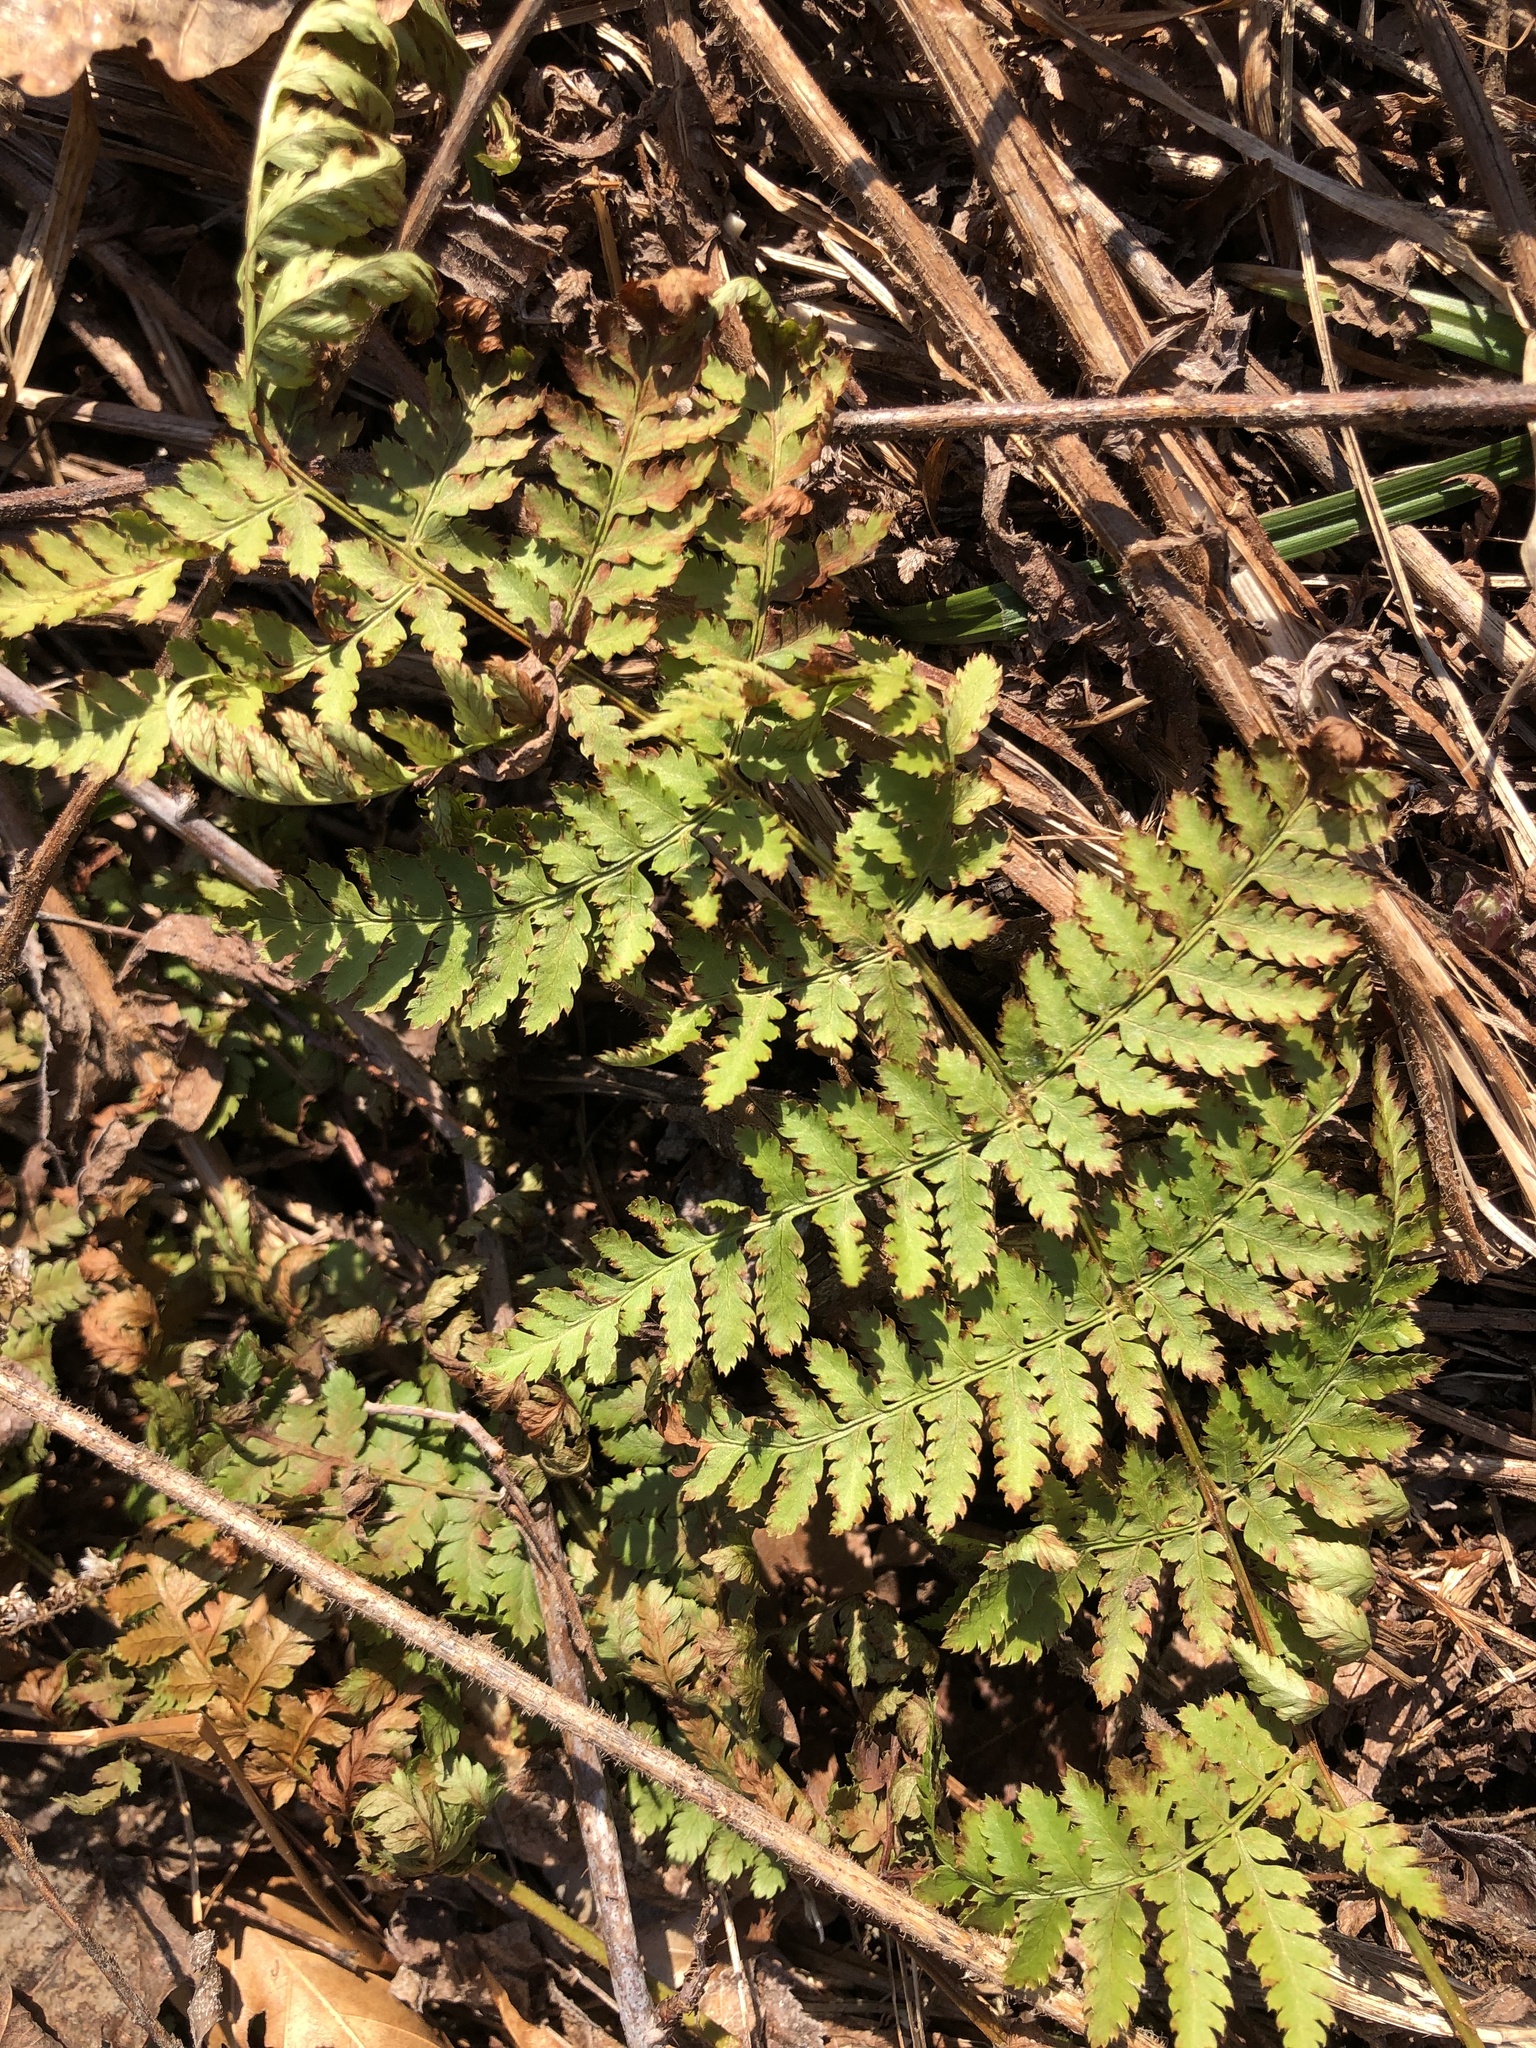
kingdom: Plantae
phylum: Tracheophyta
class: Polypodiopsida
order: Polypodiales
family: Dryopteridaceae
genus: Dryopteris
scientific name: Dryopteris intermedia
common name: Evergreen wood fern
